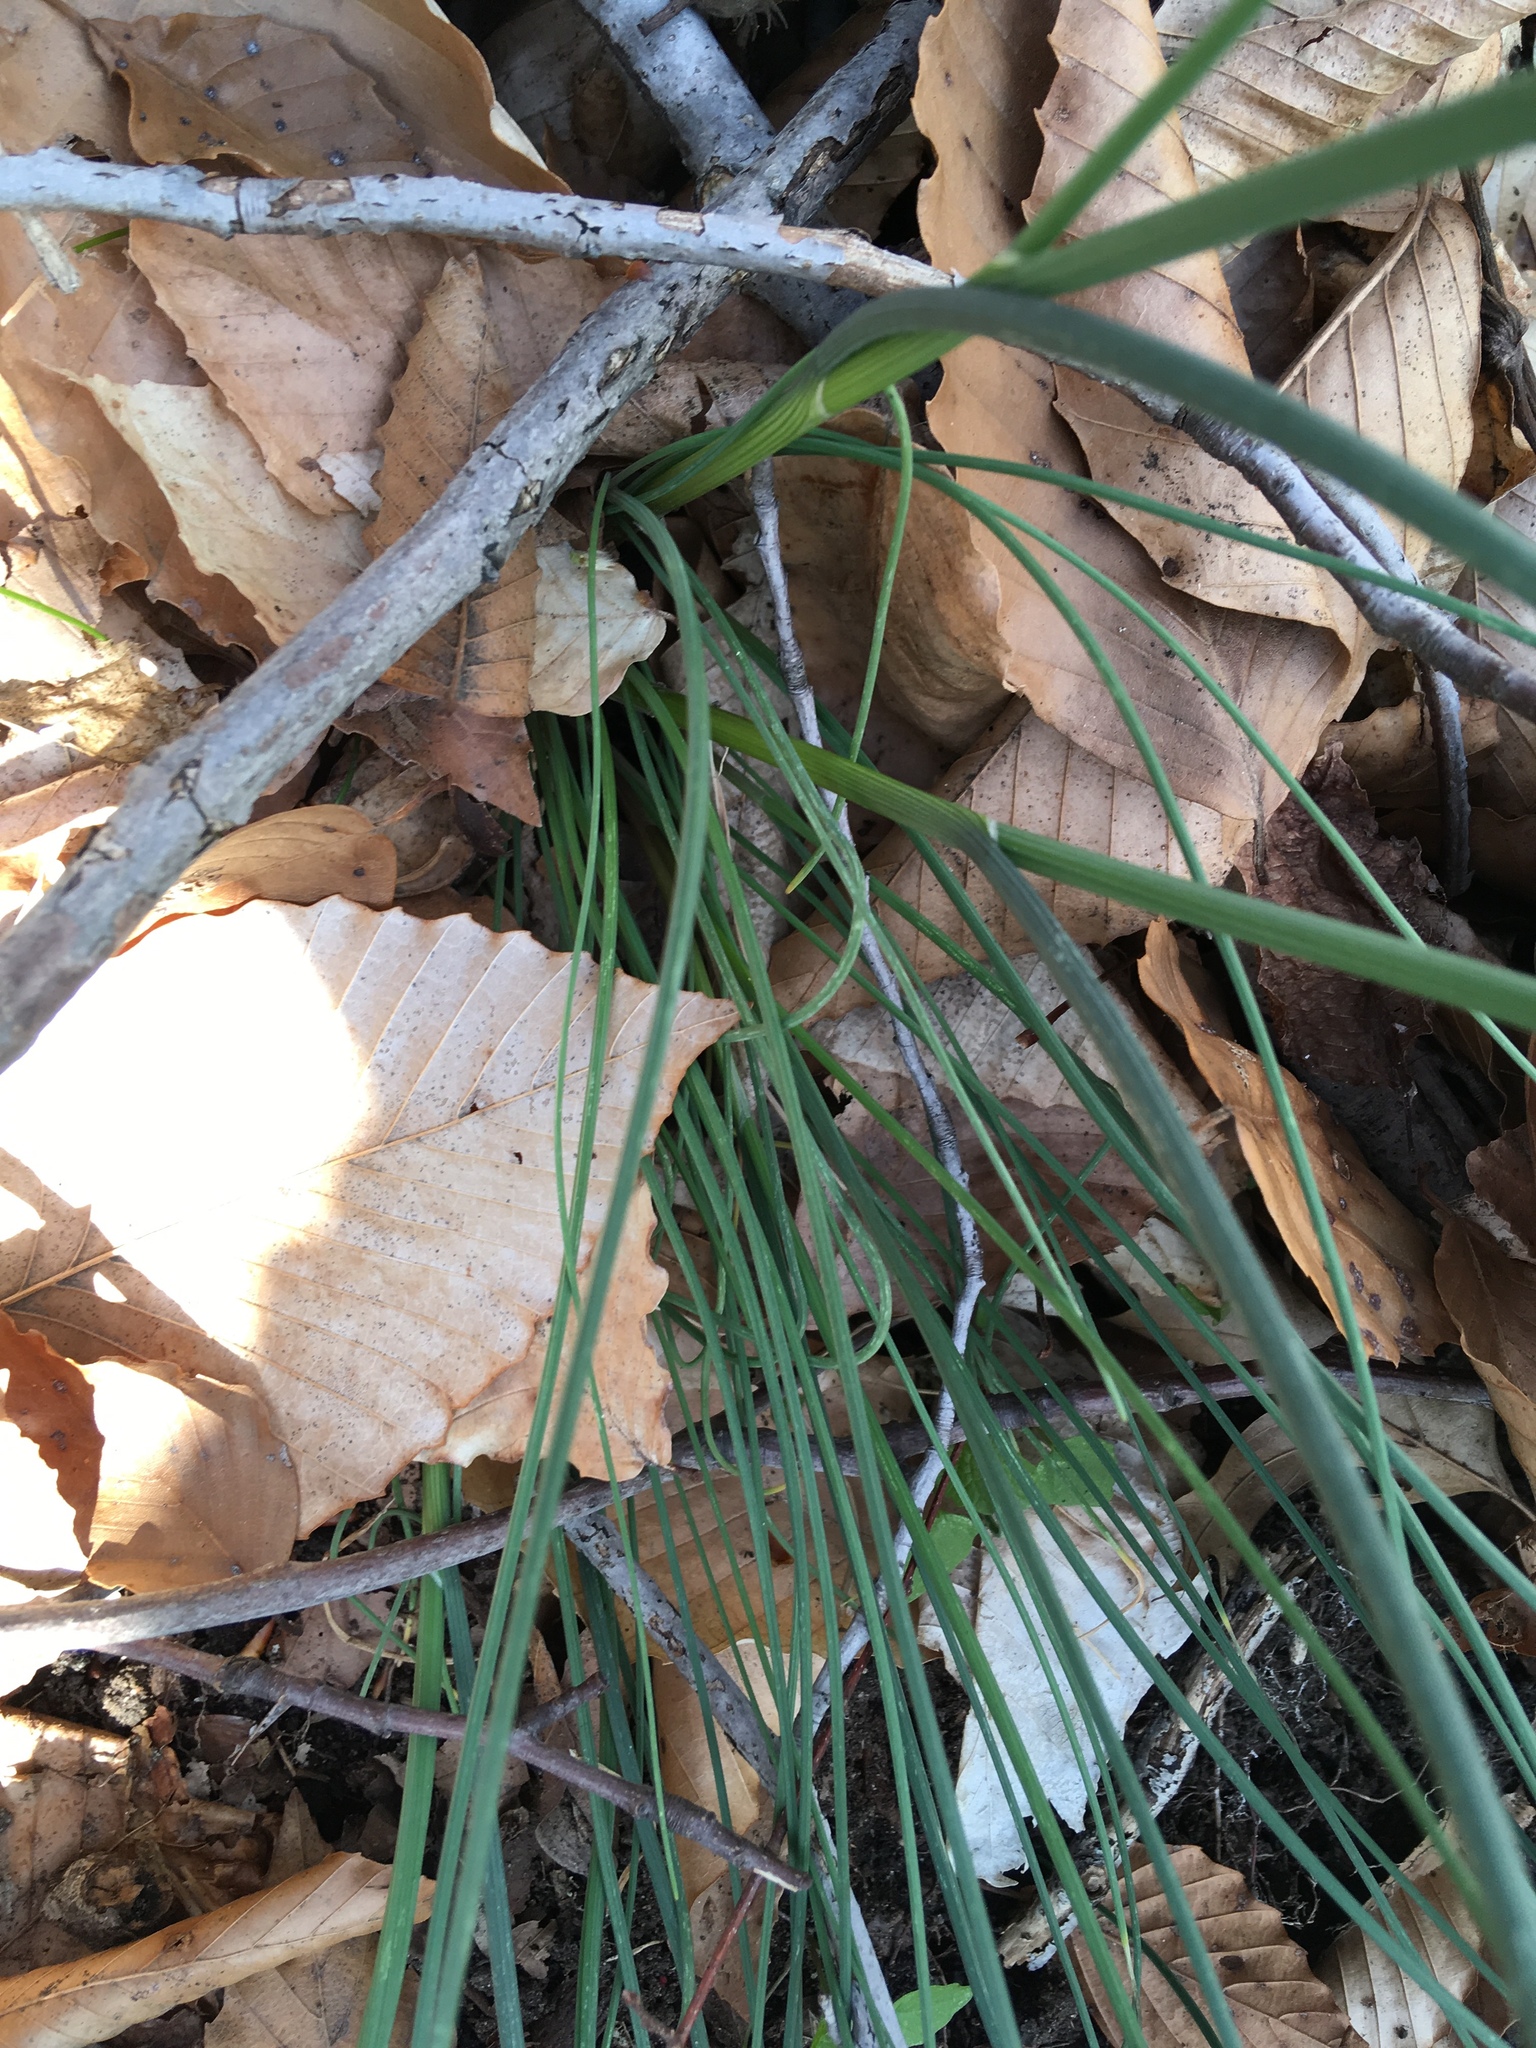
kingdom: Plantae
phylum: Tracheophyta
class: Liliopsida
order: Asparagales
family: Amaryllidaceae
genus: Allium
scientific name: Allium vineale
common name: Crow garlic
